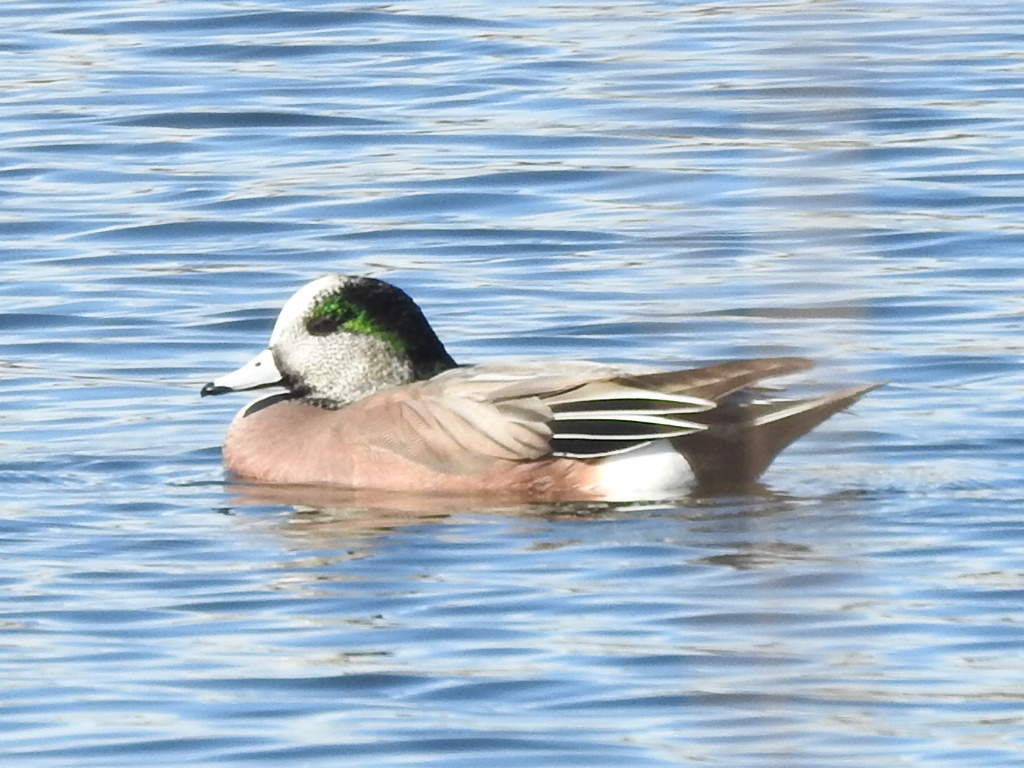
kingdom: Animalia
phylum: Chordata
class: Aves
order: Anseriformes
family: Anatidae
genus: Mareca
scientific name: Mareca americana
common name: American wigeon
